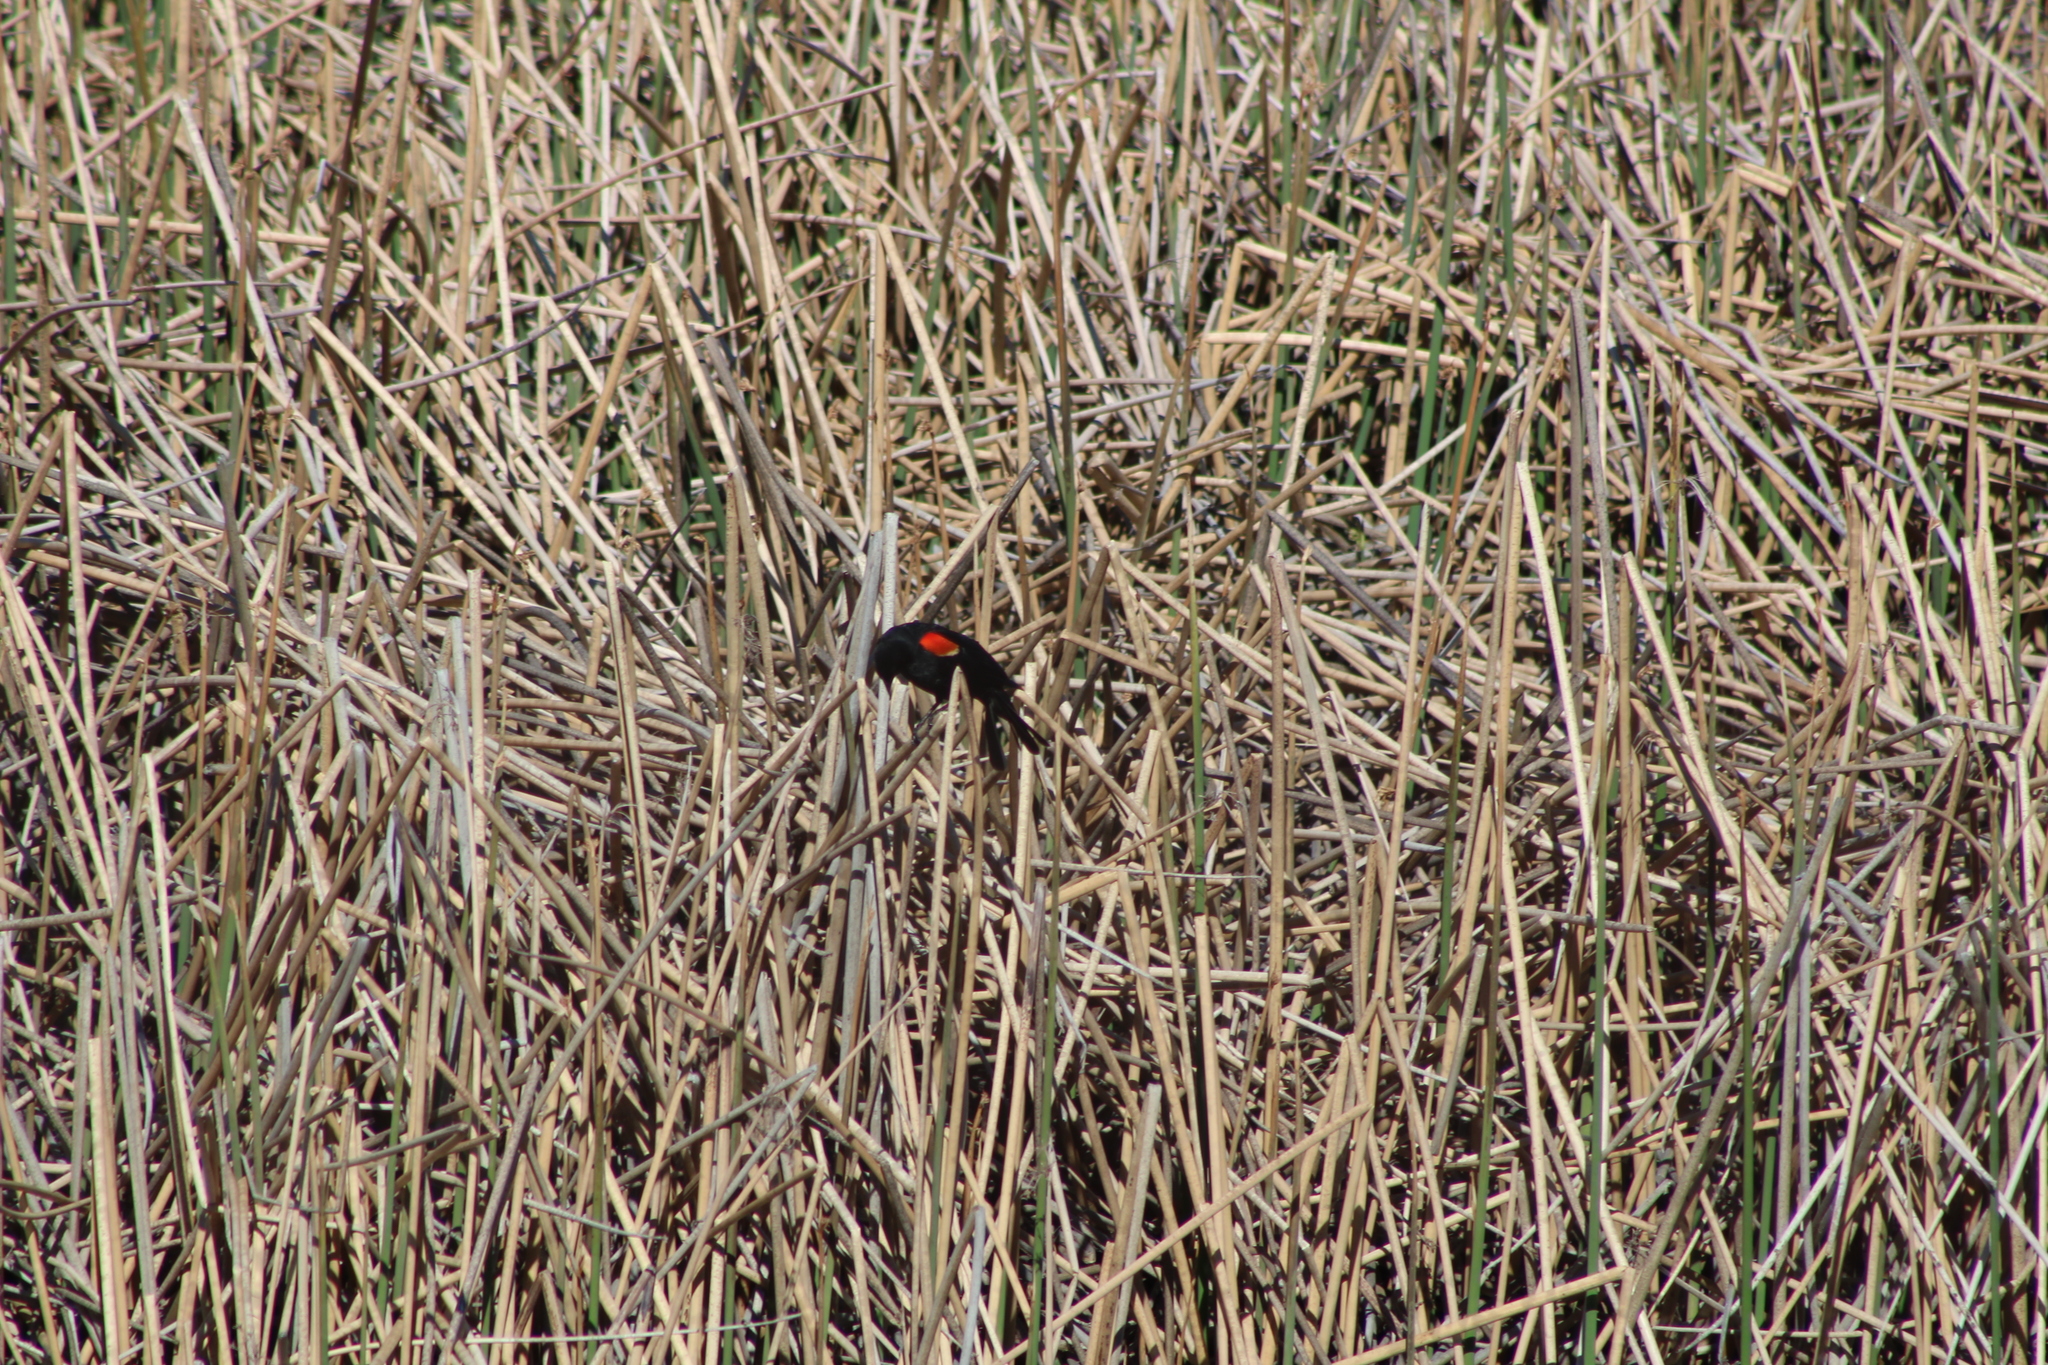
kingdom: Animalia
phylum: Chordata
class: Aves
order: Passeriformes
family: Icteridae
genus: Agelaius
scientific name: Agelaius phoeniceus
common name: Red-winged blackbird
